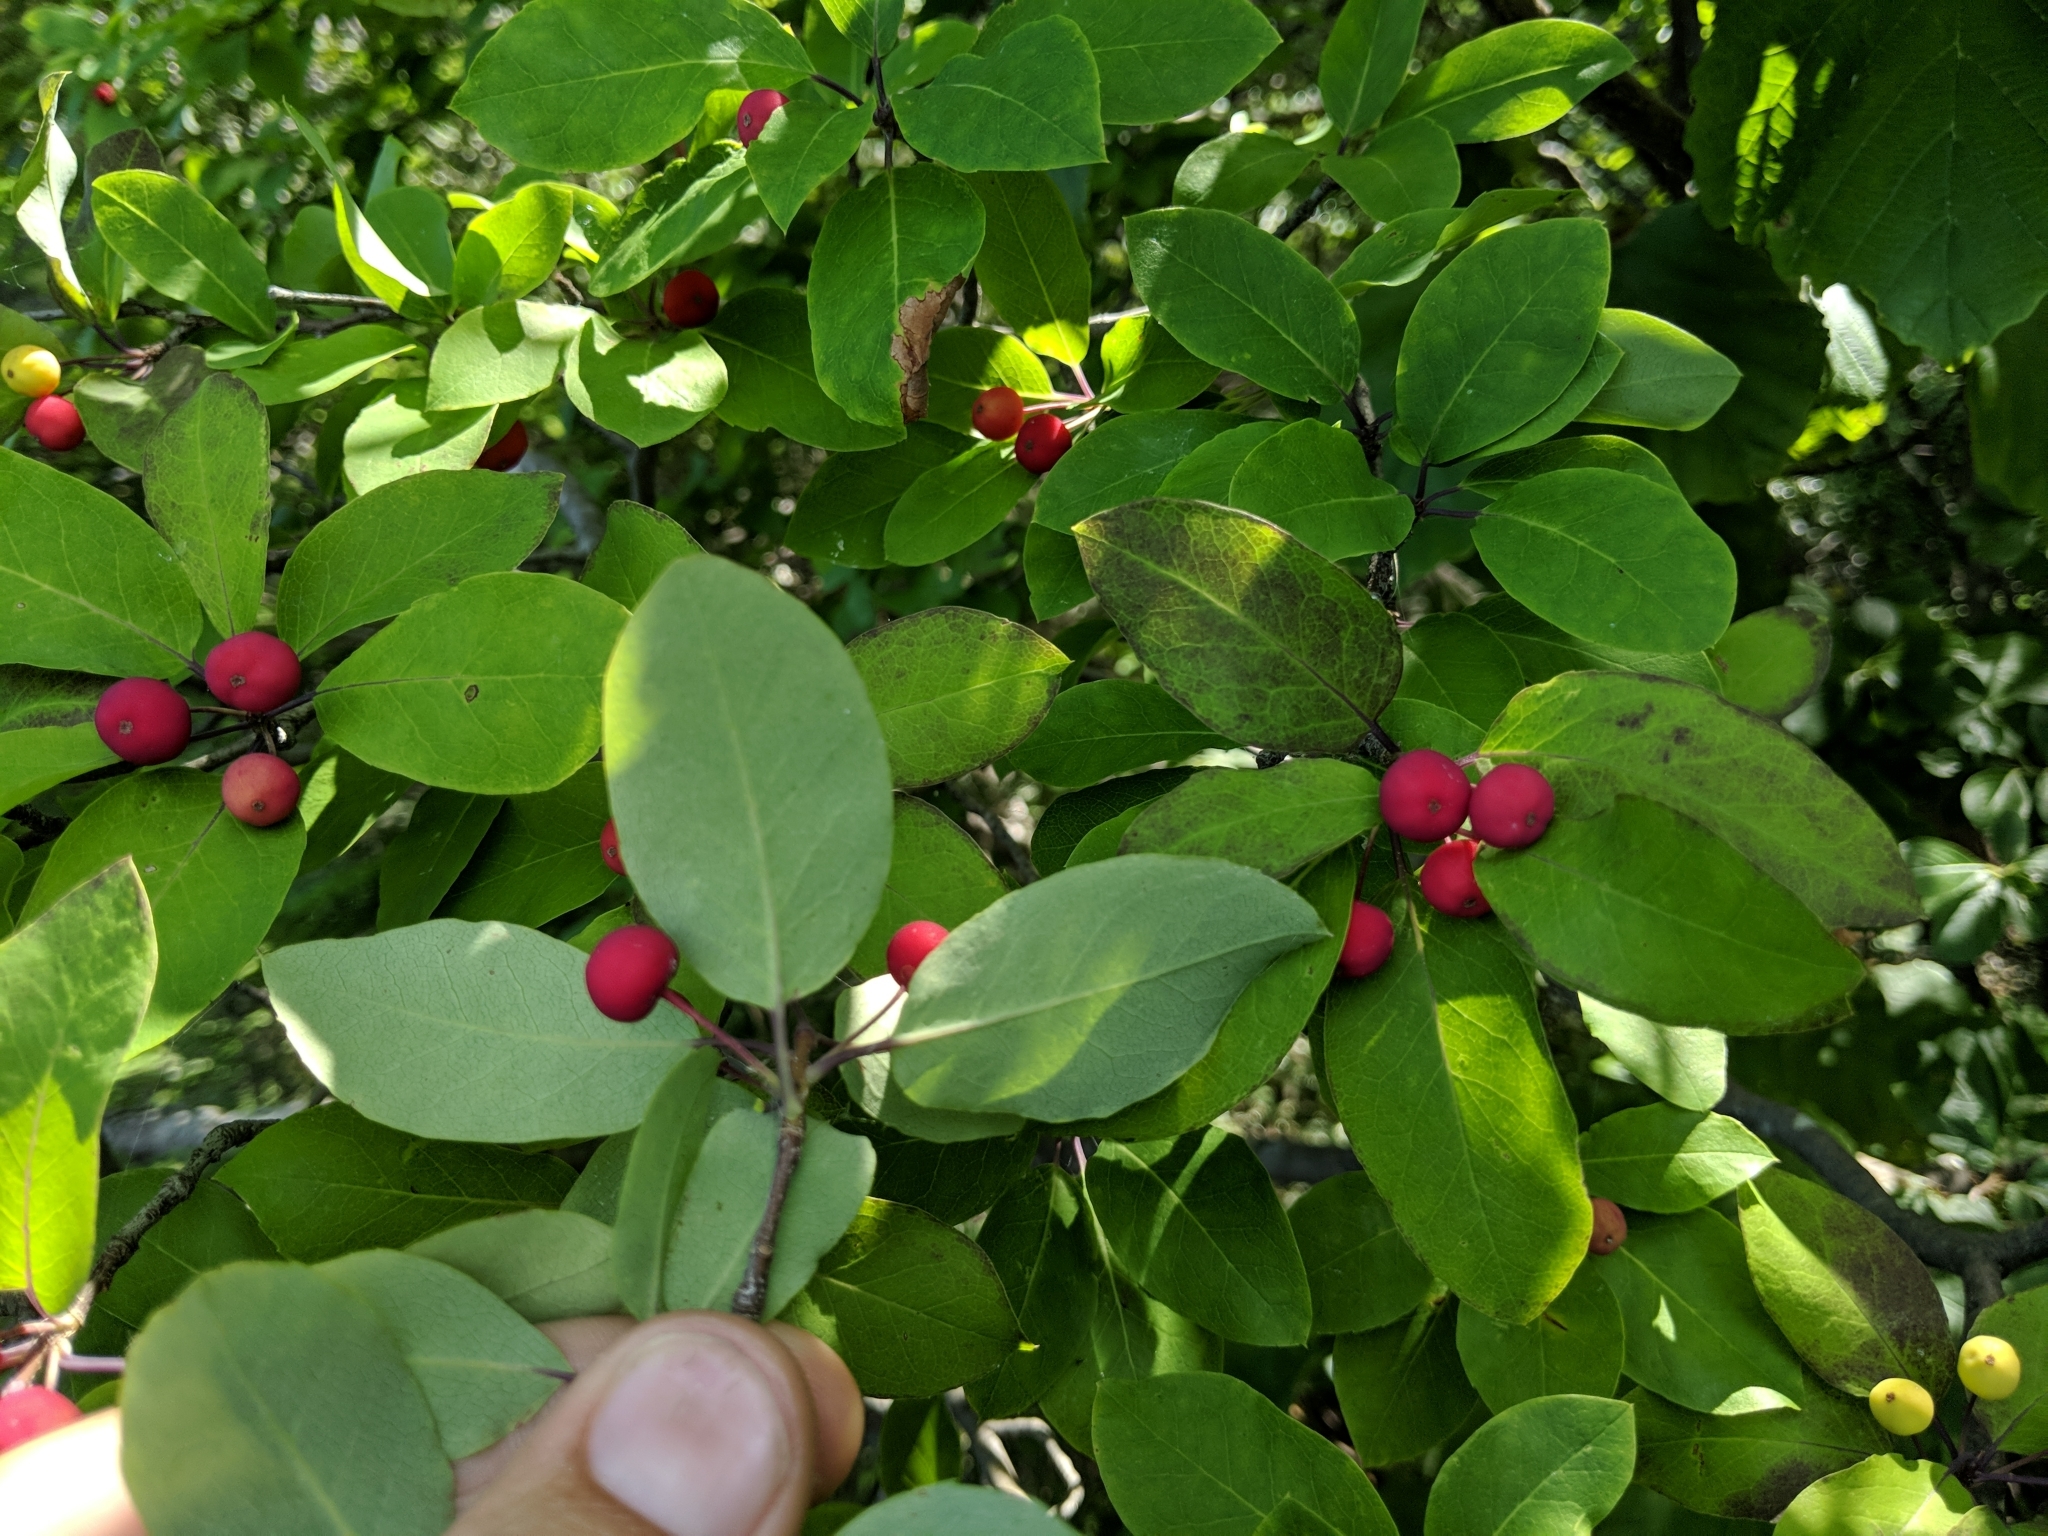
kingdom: Plantae
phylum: Tracheophyta
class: Magnoliopsida
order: Aquifoliales
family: Aquifoliaceae
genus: Ilex
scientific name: Ilex mucronata
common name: Catberry
